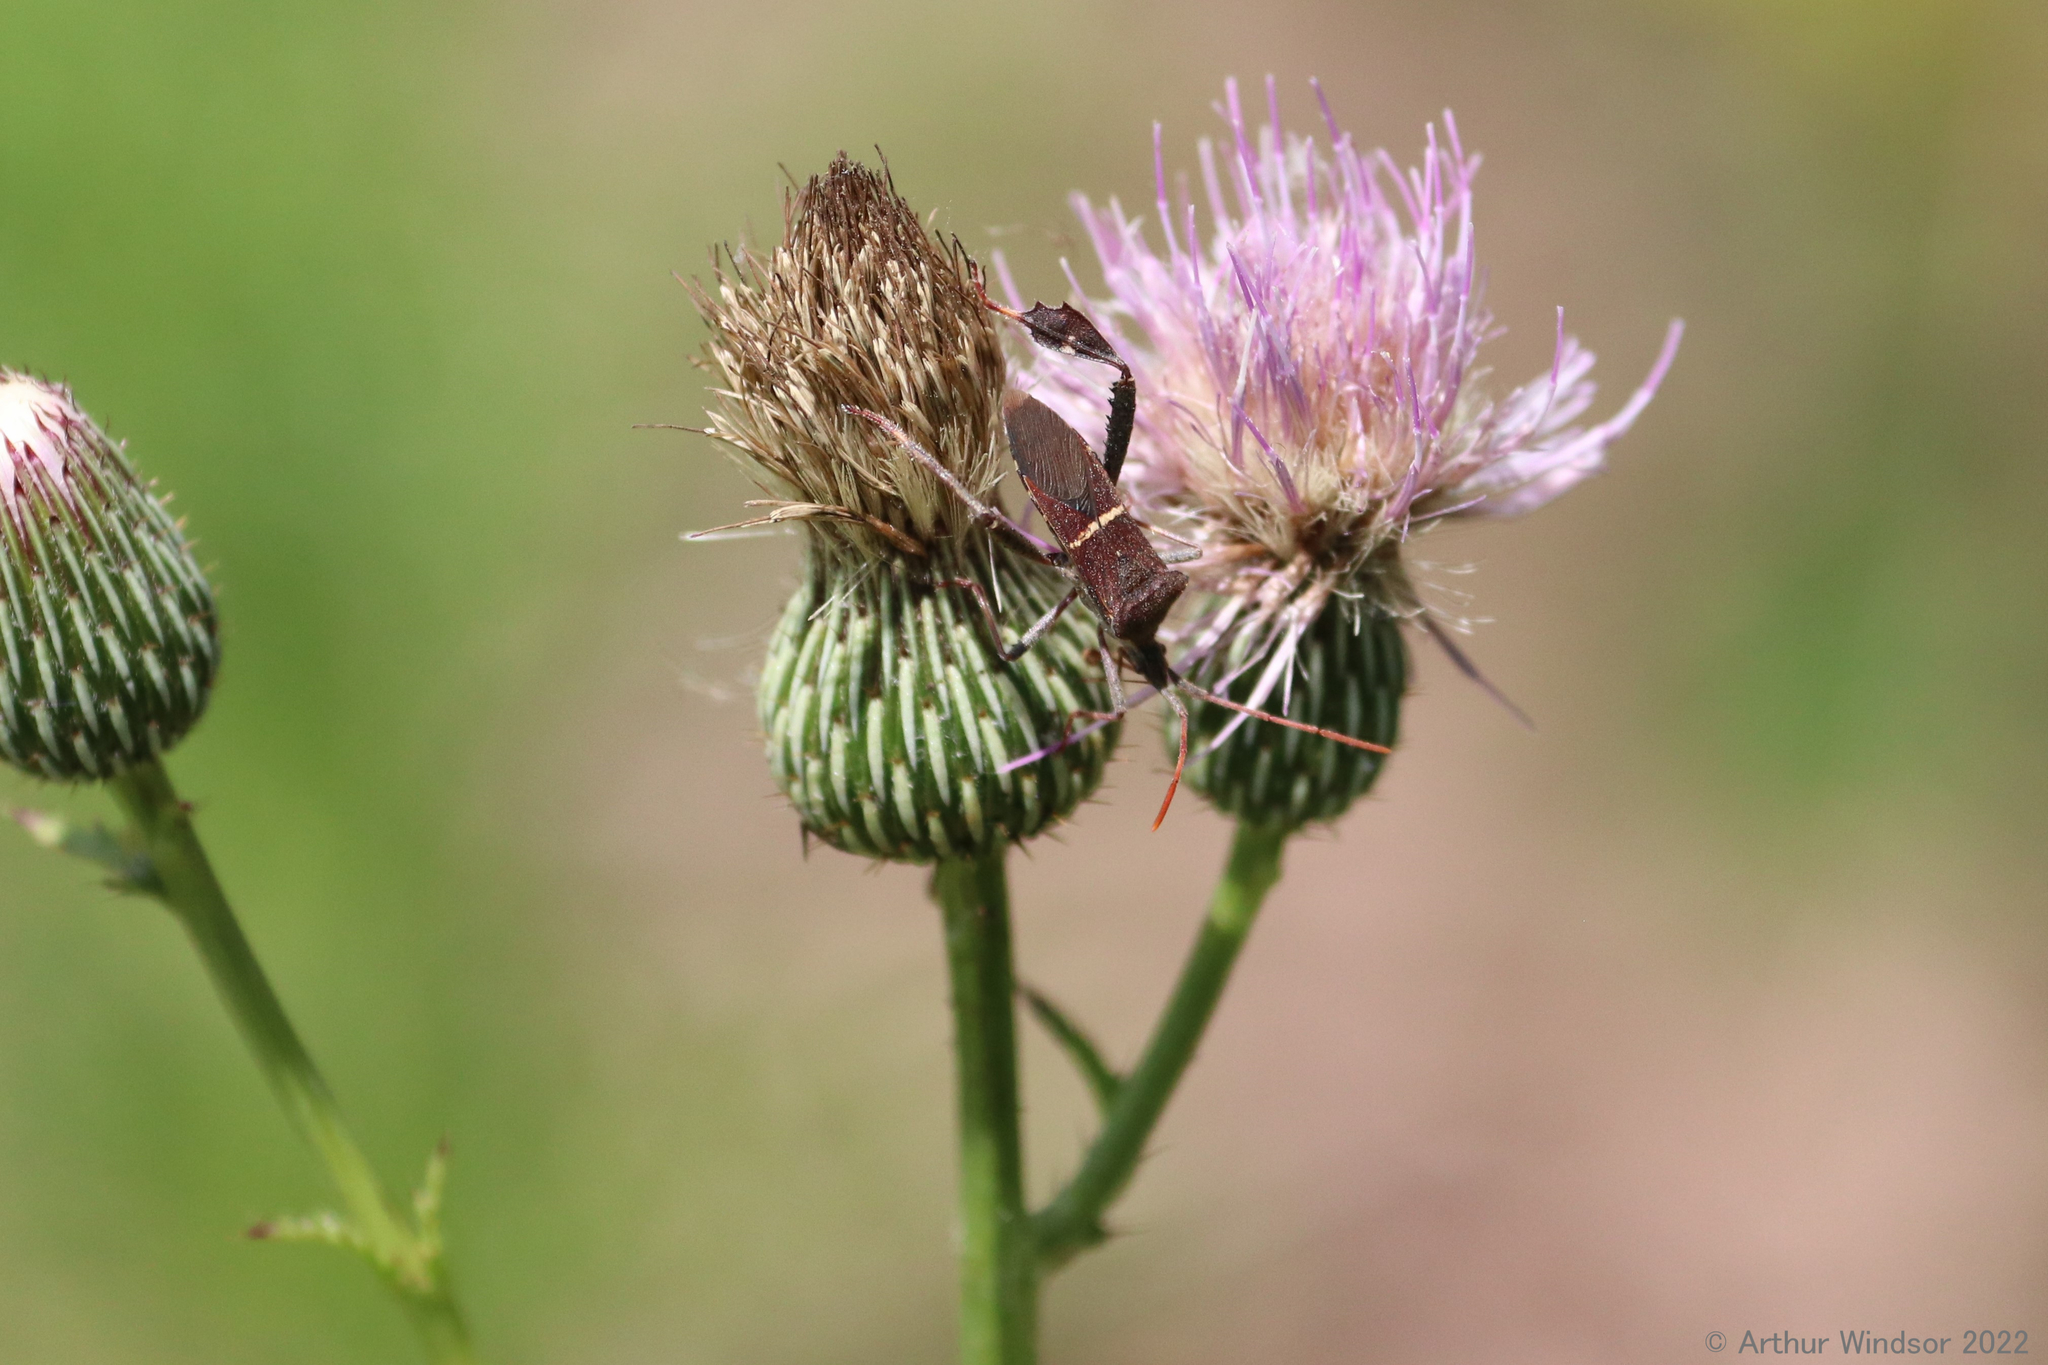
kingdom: Animalia
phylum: Arthropoda
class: Insecta
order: Hemiptera
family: Coreidae
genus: Leptoglossus
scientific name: Leptoglossus phyllopus
